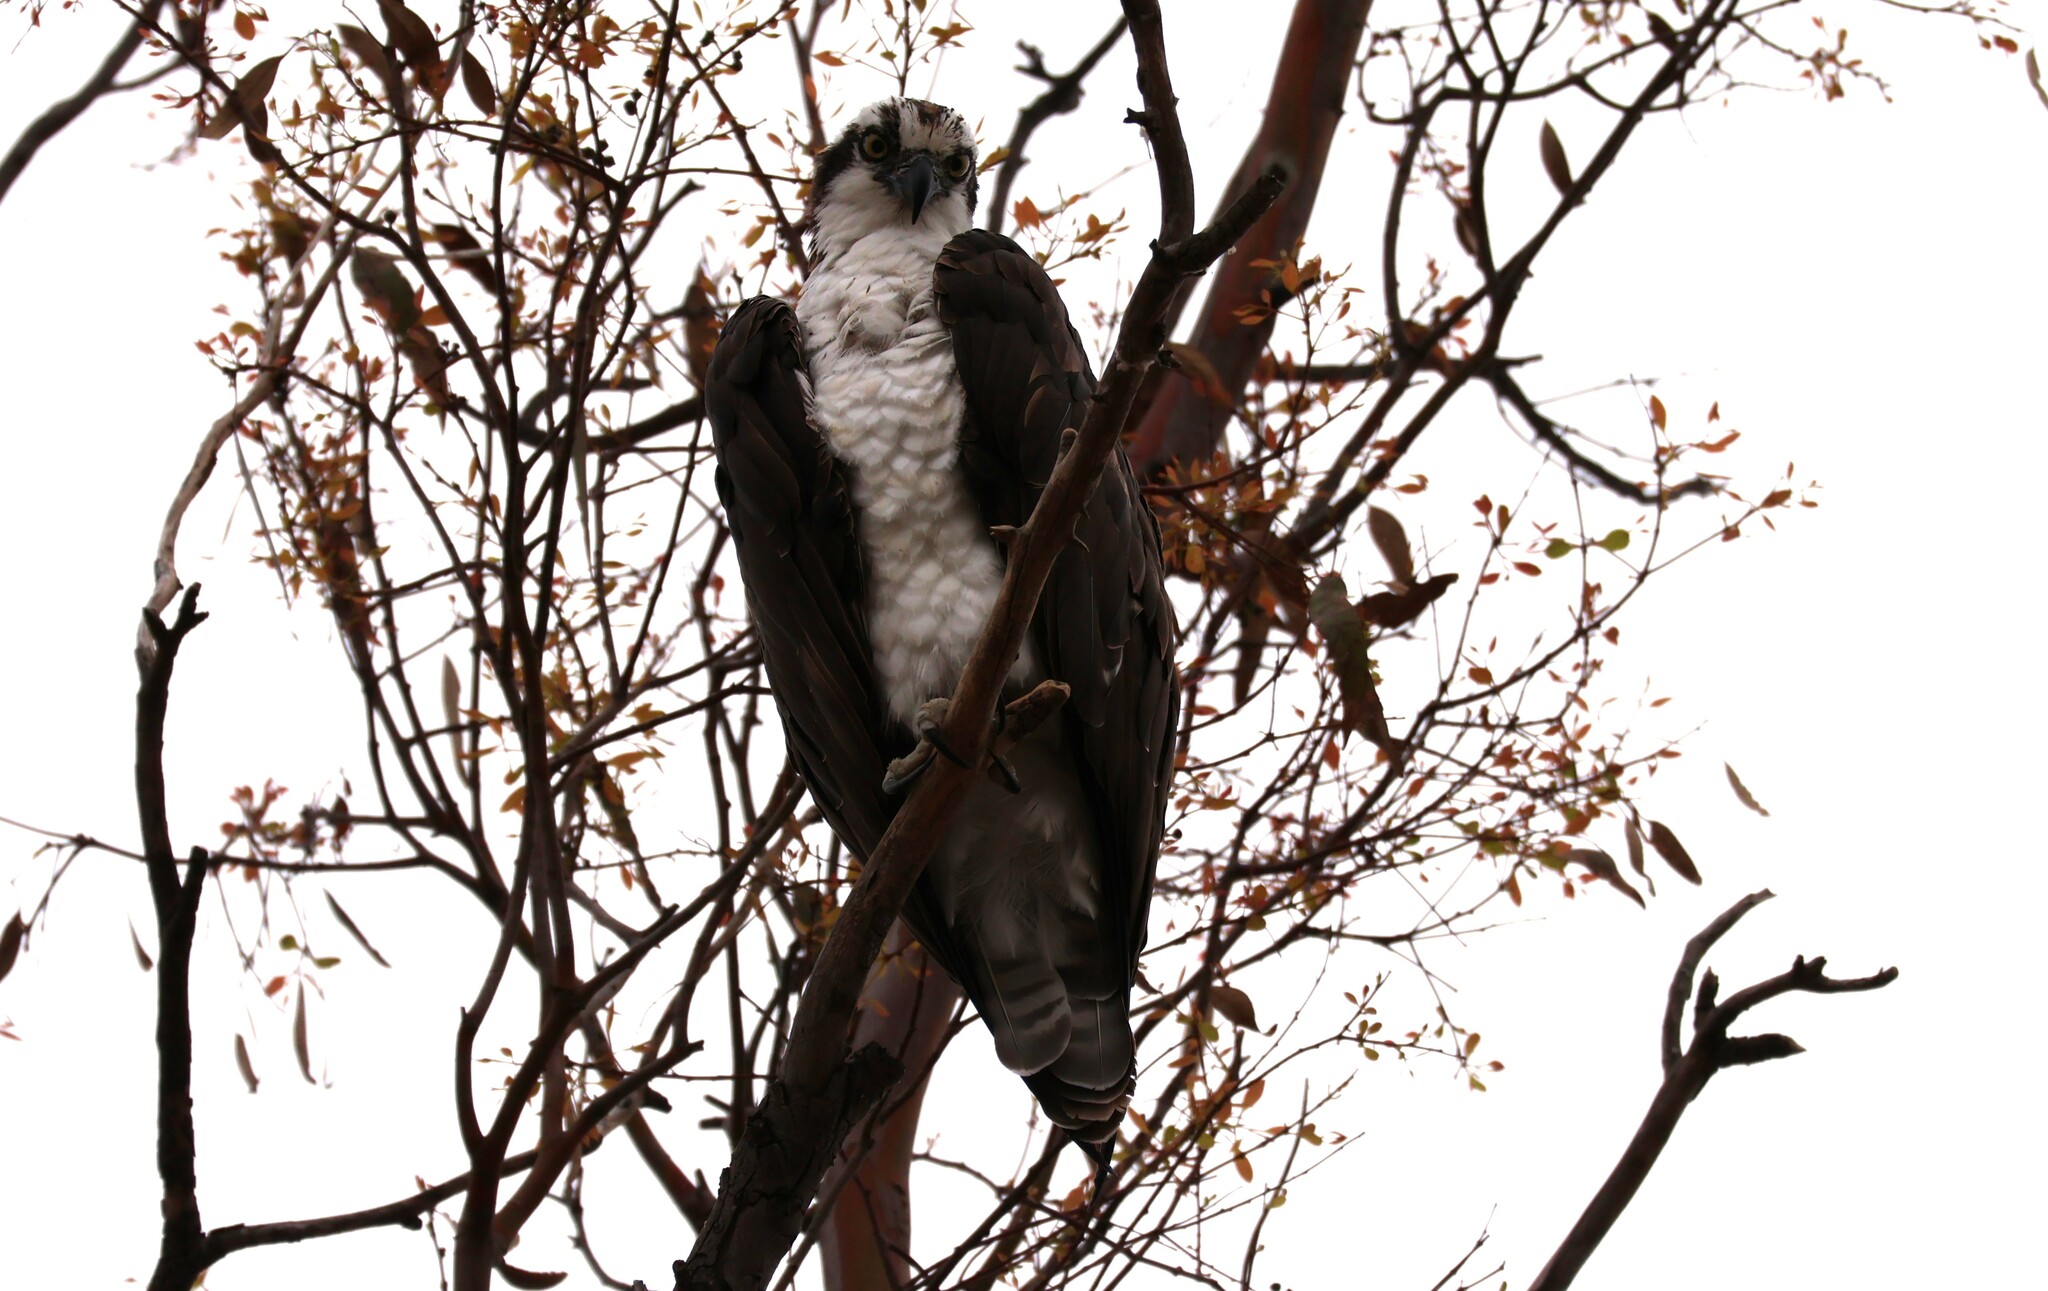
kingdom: Animalia
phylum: Chordata
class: Aves
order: Accipitriformes
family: Pandionidae
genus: Pandion
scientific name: Pandion haliaetus
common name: Osprey
